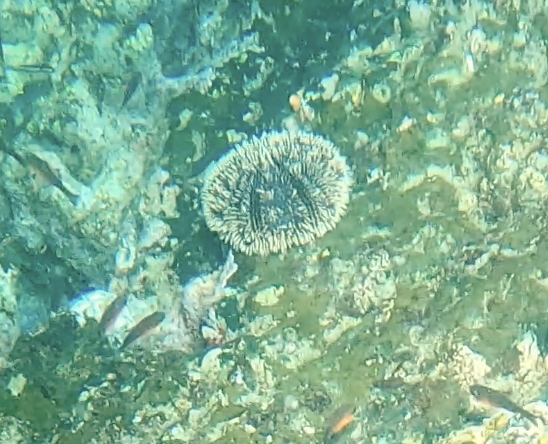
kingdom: Animalia
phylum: Echinodermata
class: Echinoidea
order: Camarodonta
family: Toxopneustidae
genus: Tripneustes
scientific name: Tripneustes depressus
